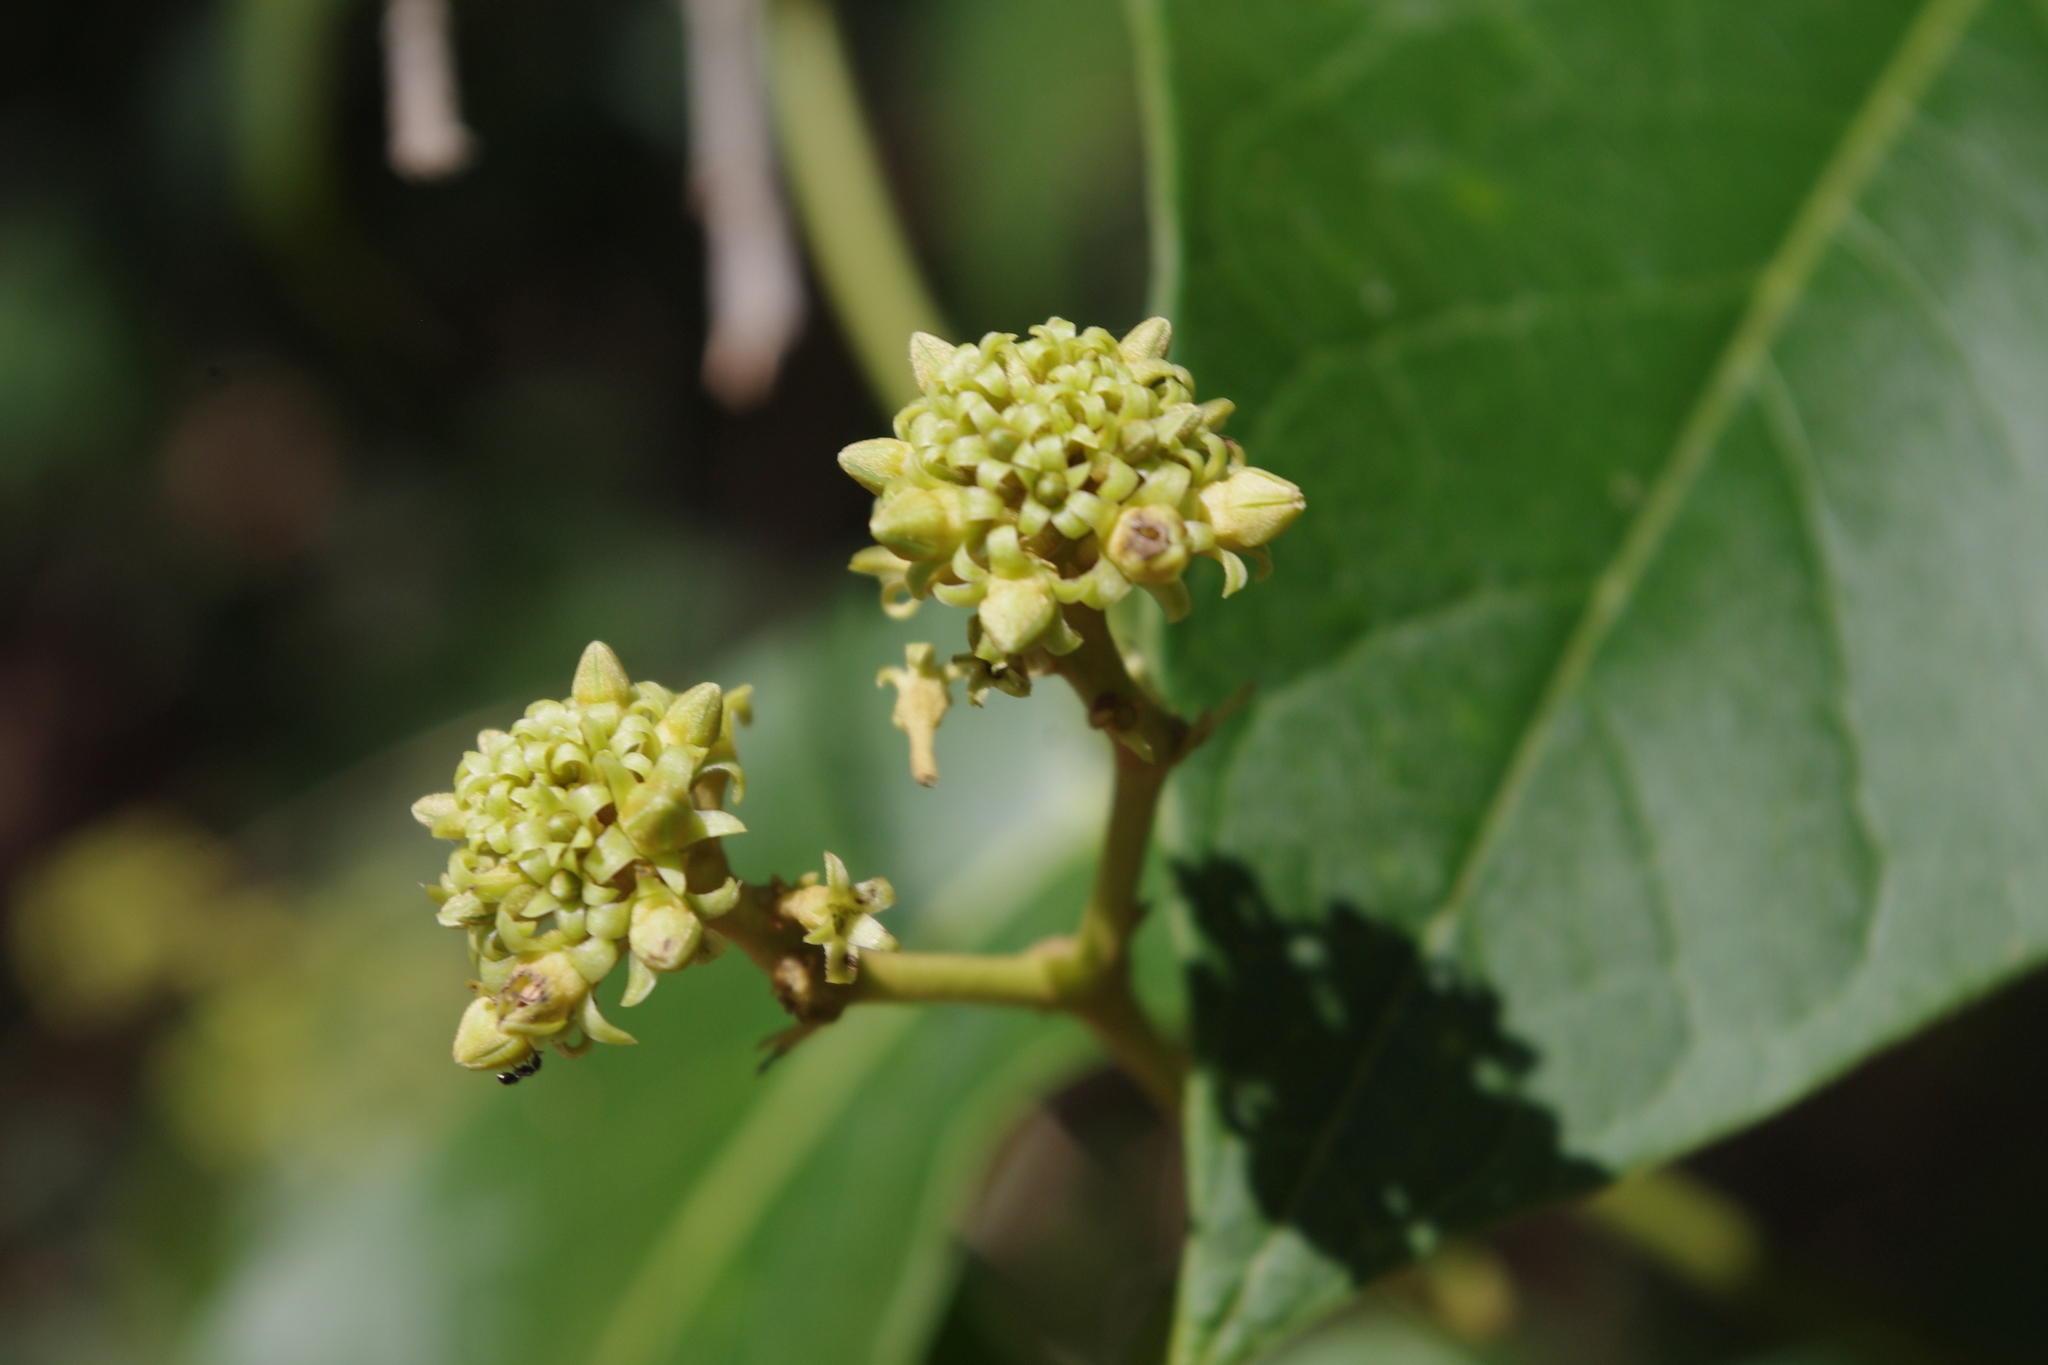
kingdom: Plantae
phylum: Tracheophyta
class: Magnoliopsida
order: Gentianales
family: Apocynaceae
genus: Parsonsia
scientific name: Parsonsia velutina
